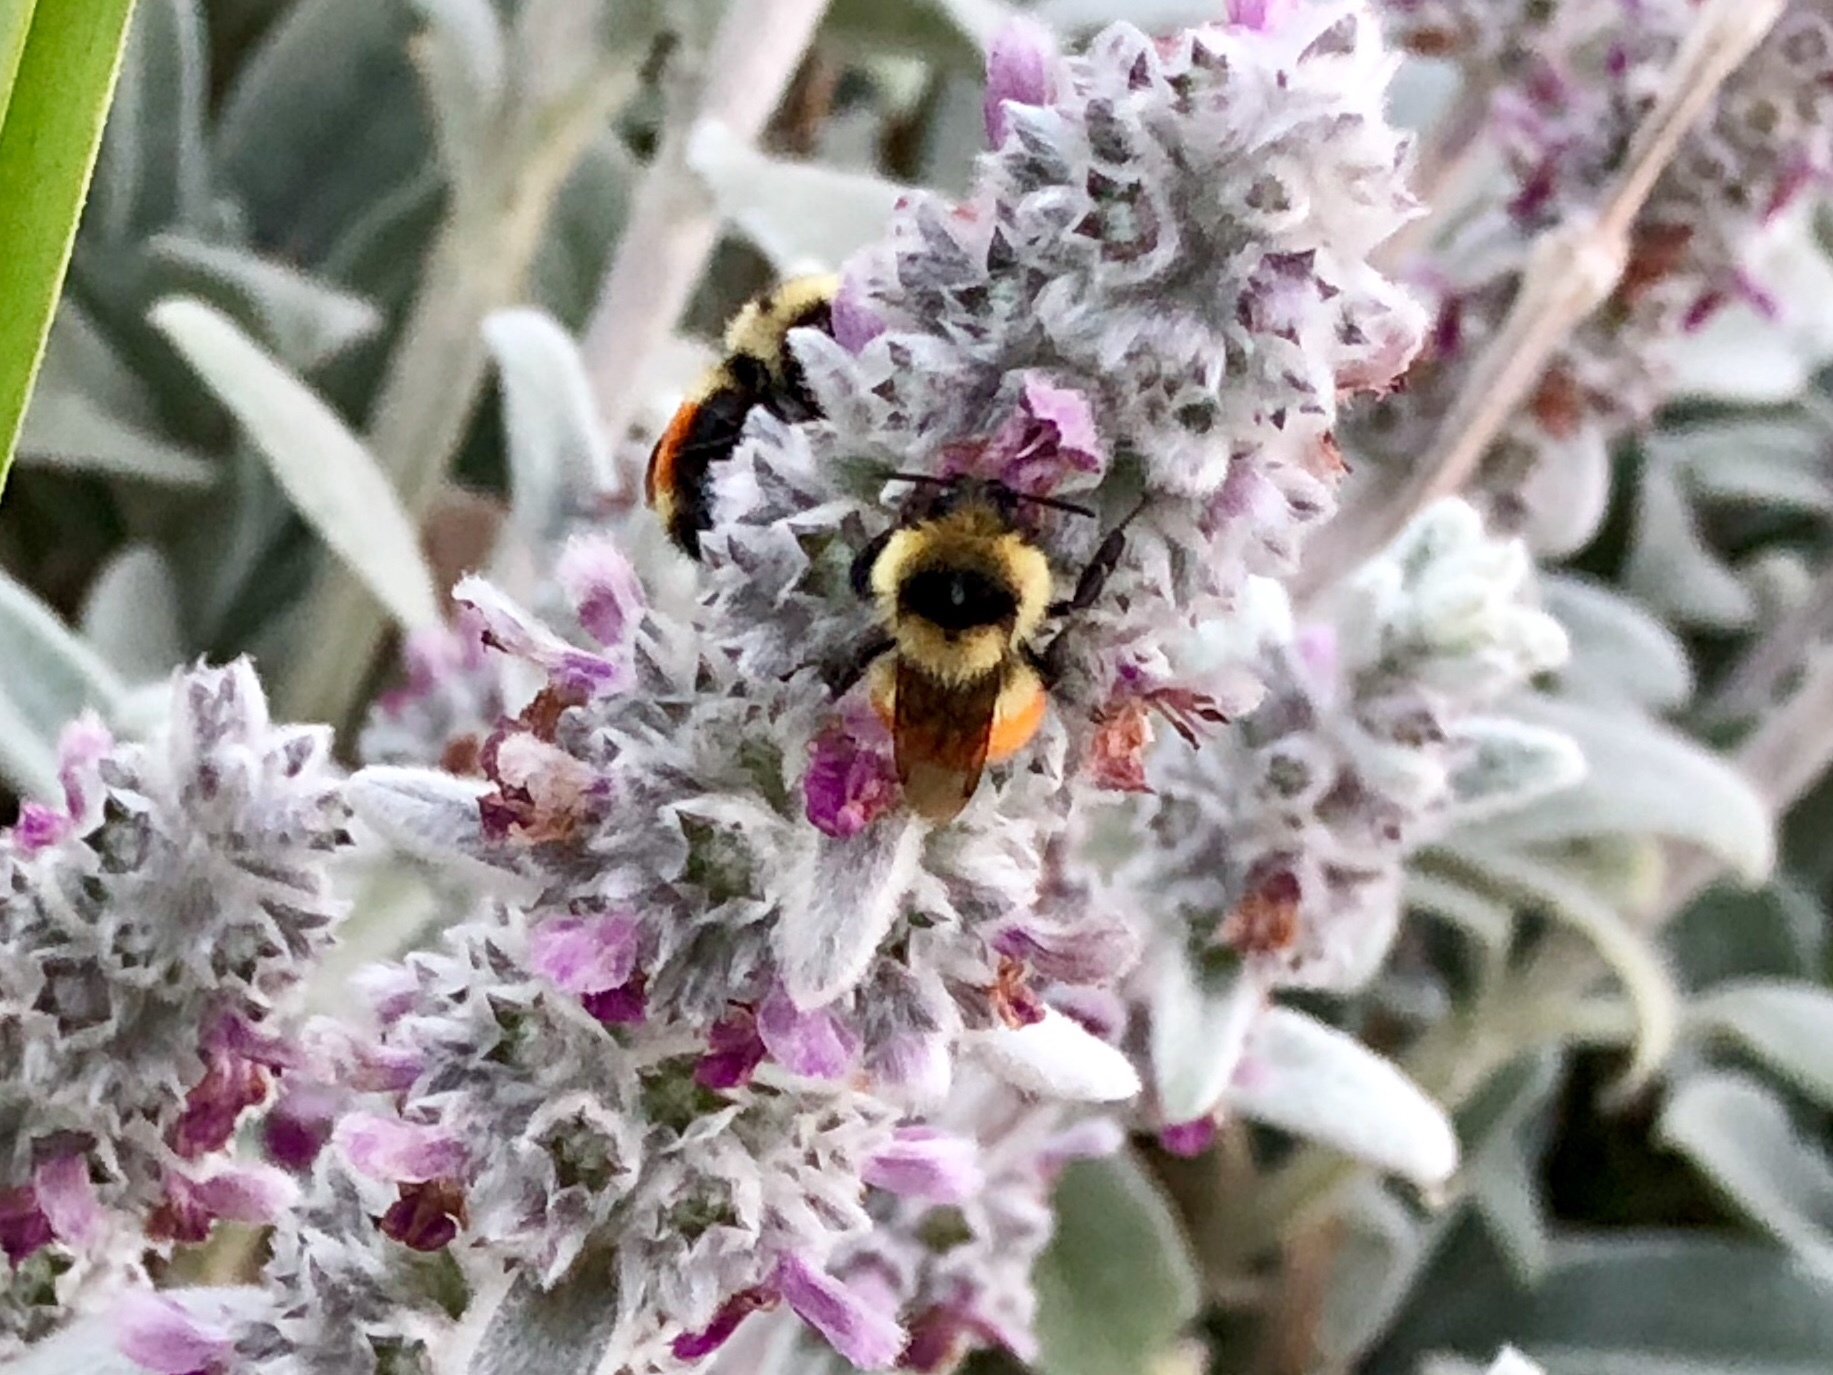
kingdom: Animalia
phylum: Arthropoda
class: Insecta
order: Hymenoptera
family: Apidae
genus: Bombus
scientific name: Bombus huntii
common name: Hunt bumble bee
